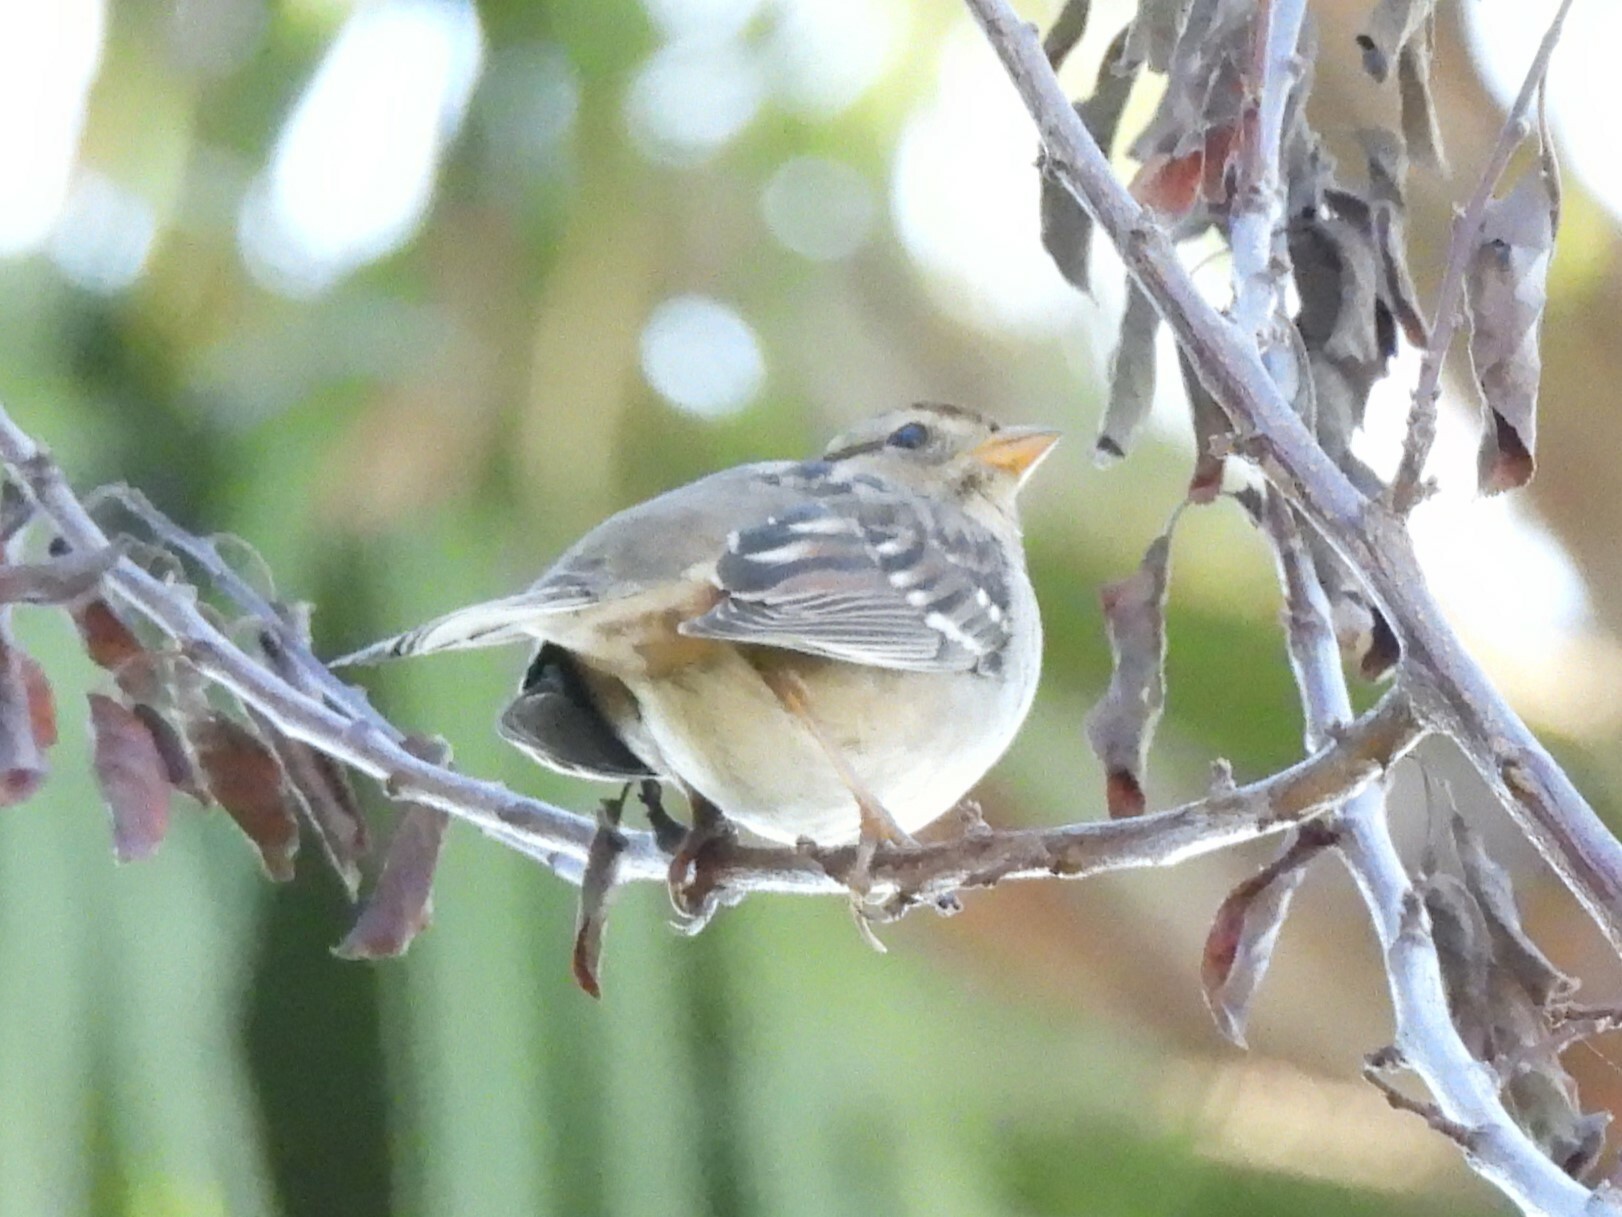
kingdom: Animalia
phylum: Chordata
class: Aves
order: Passeriformes
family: Passerellidae
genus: Zonotrichia
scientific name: Zonotrichia leucophrys
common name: White-crowned sparrow
